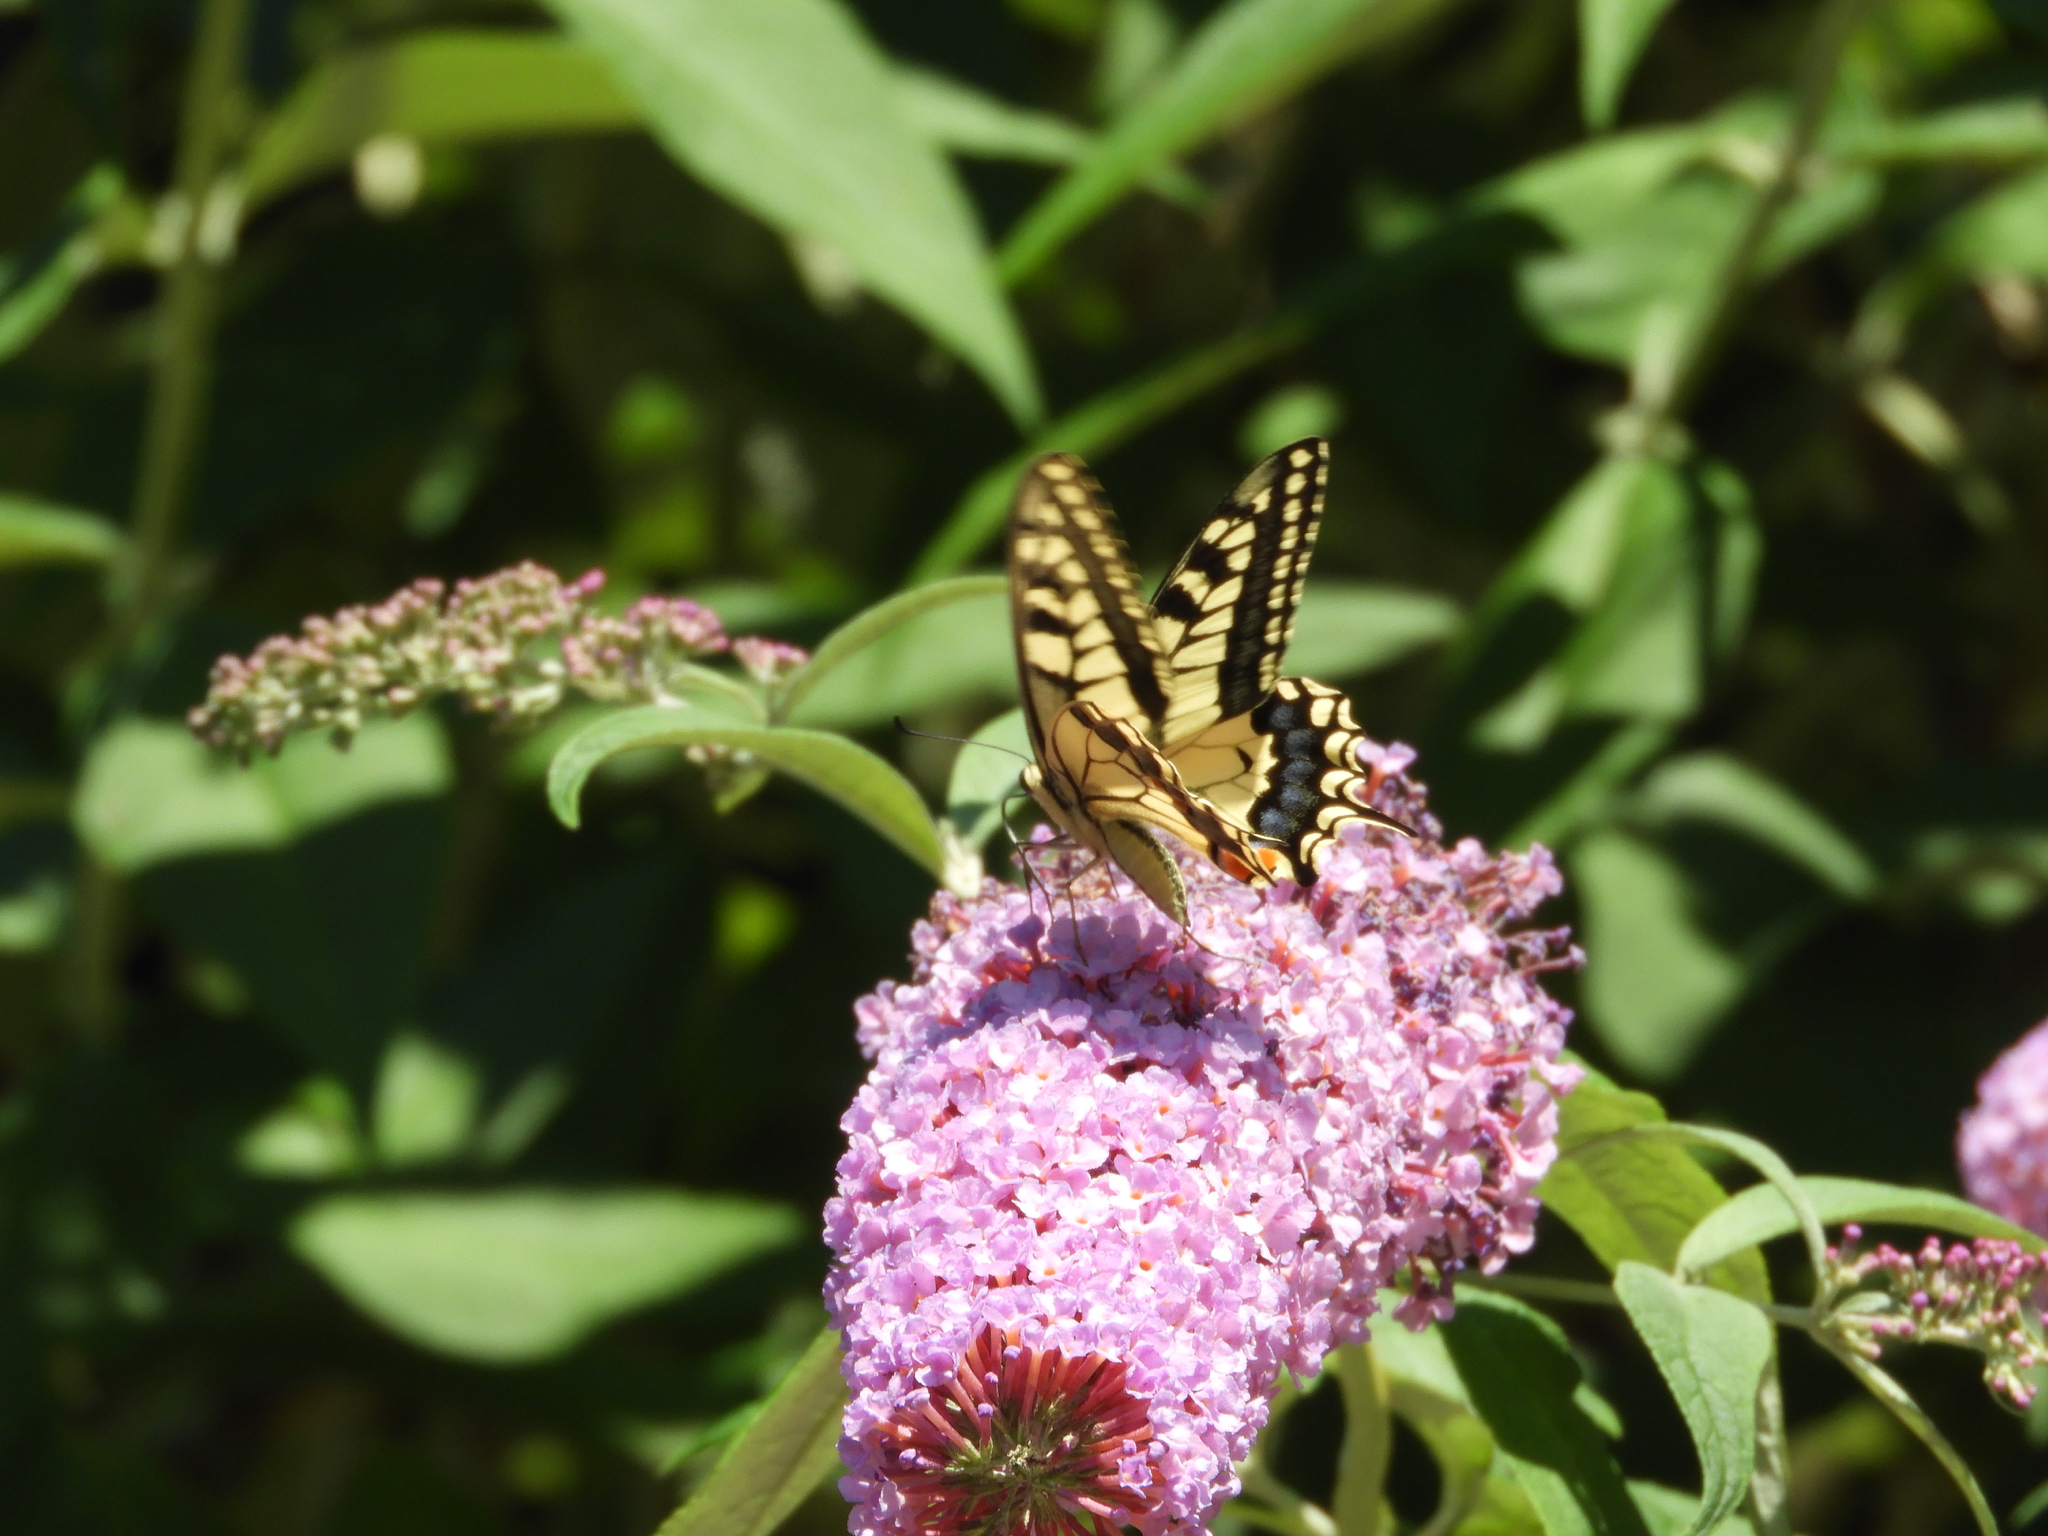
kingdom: Animalia
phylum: Arthropoda
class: Insecta
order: Lepidoptera
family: Papilionidae
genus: Papilio
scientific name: Papilio machaon
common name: Swallowtail
